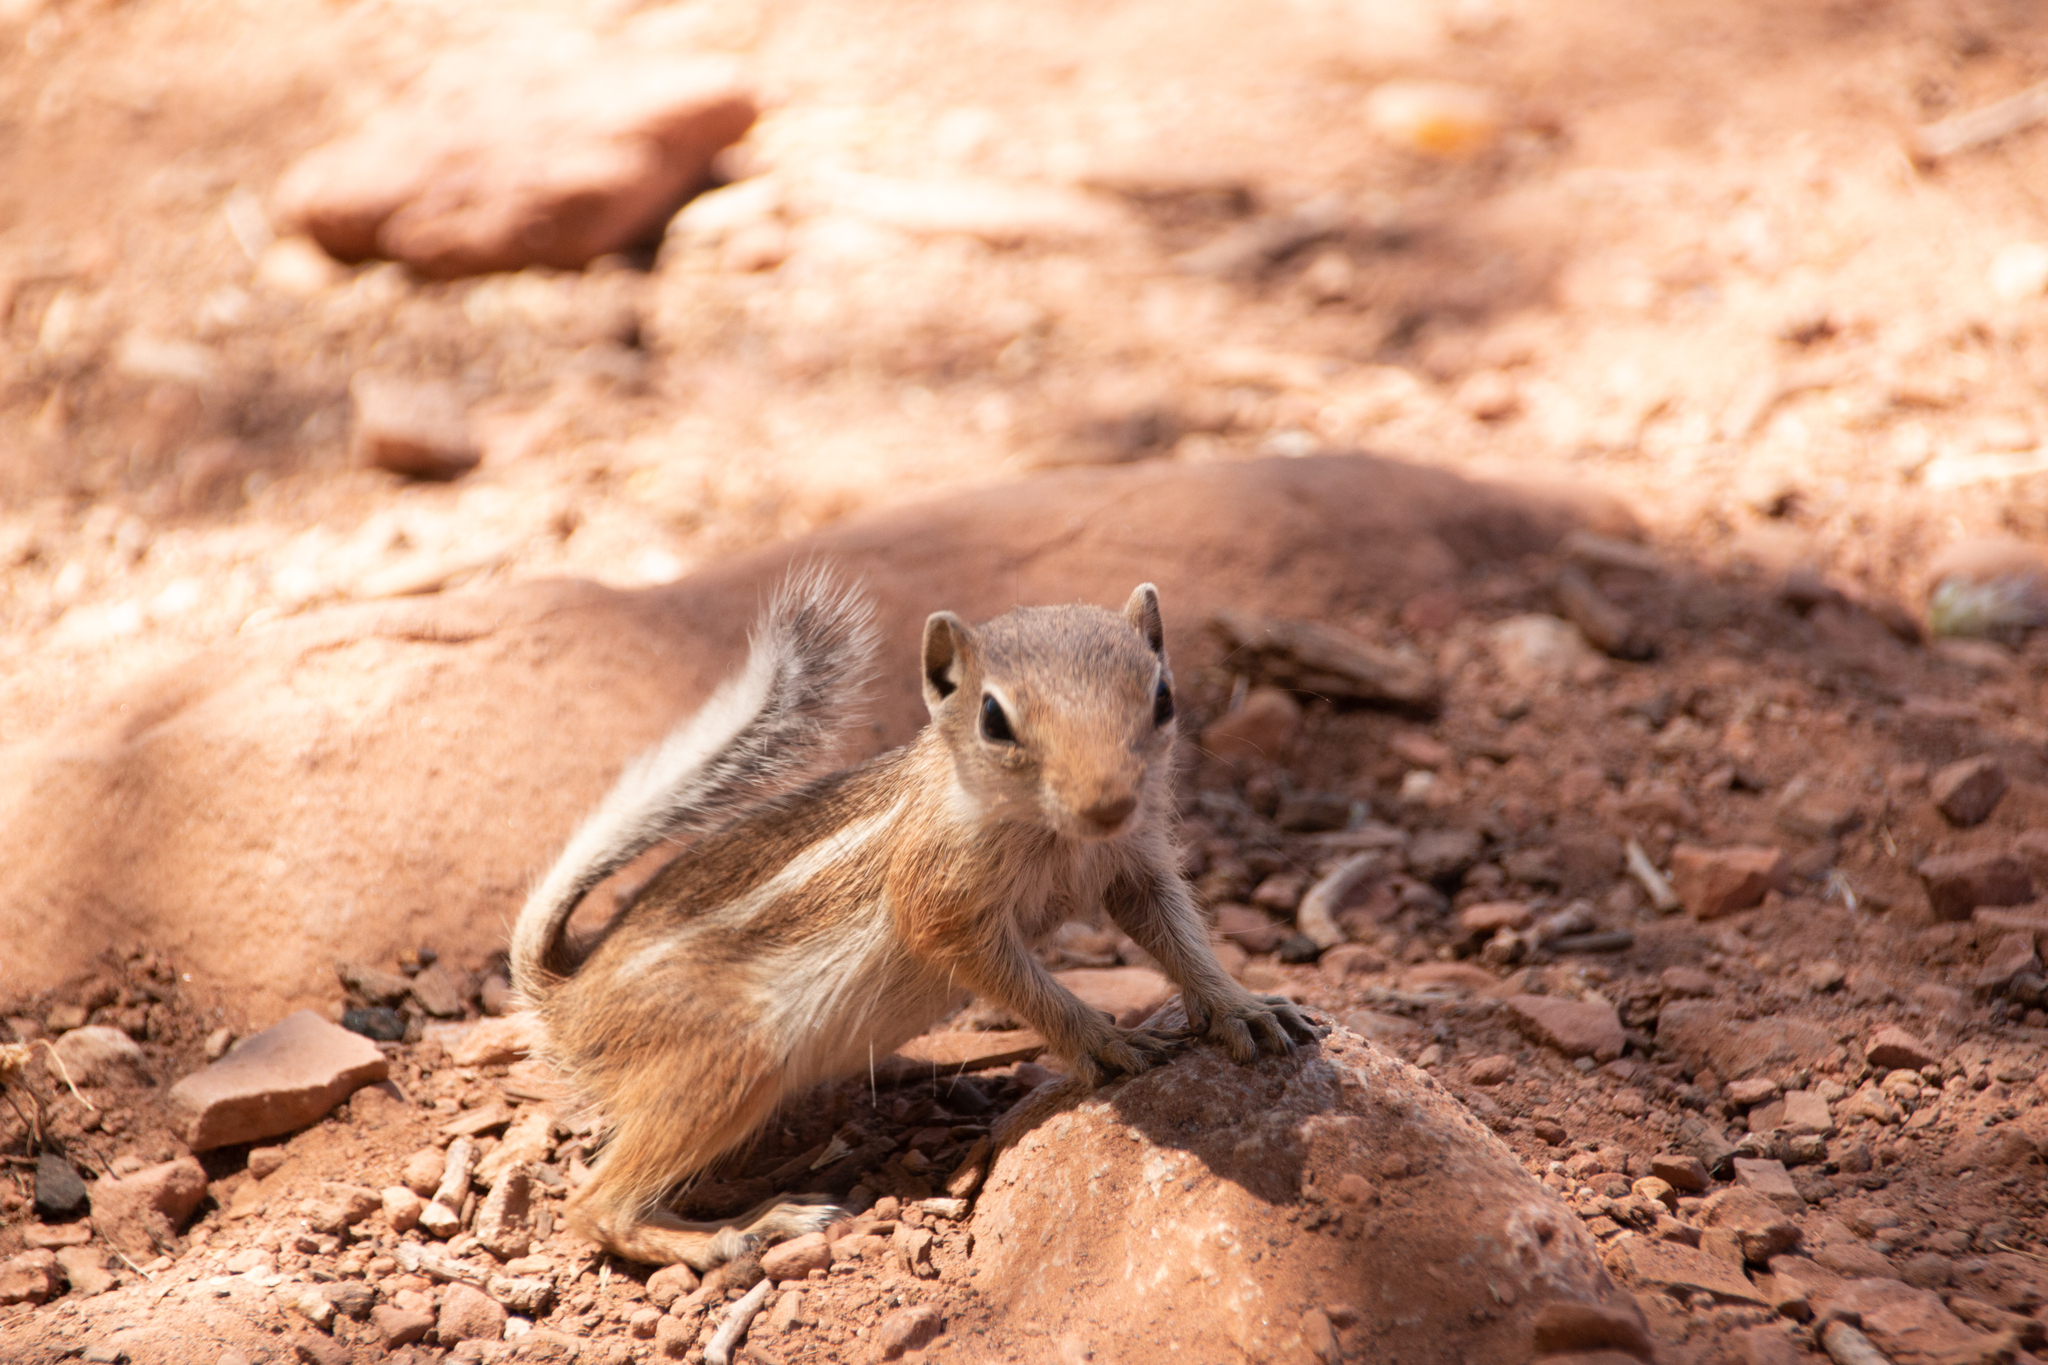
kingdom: Animalia
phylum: Chordata
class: Mammalia
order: Rodentia
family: Sciuridae
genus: Ammospermophilus
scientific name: Ammospermophilus leucurus
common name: White-tailed antelope squirrel
